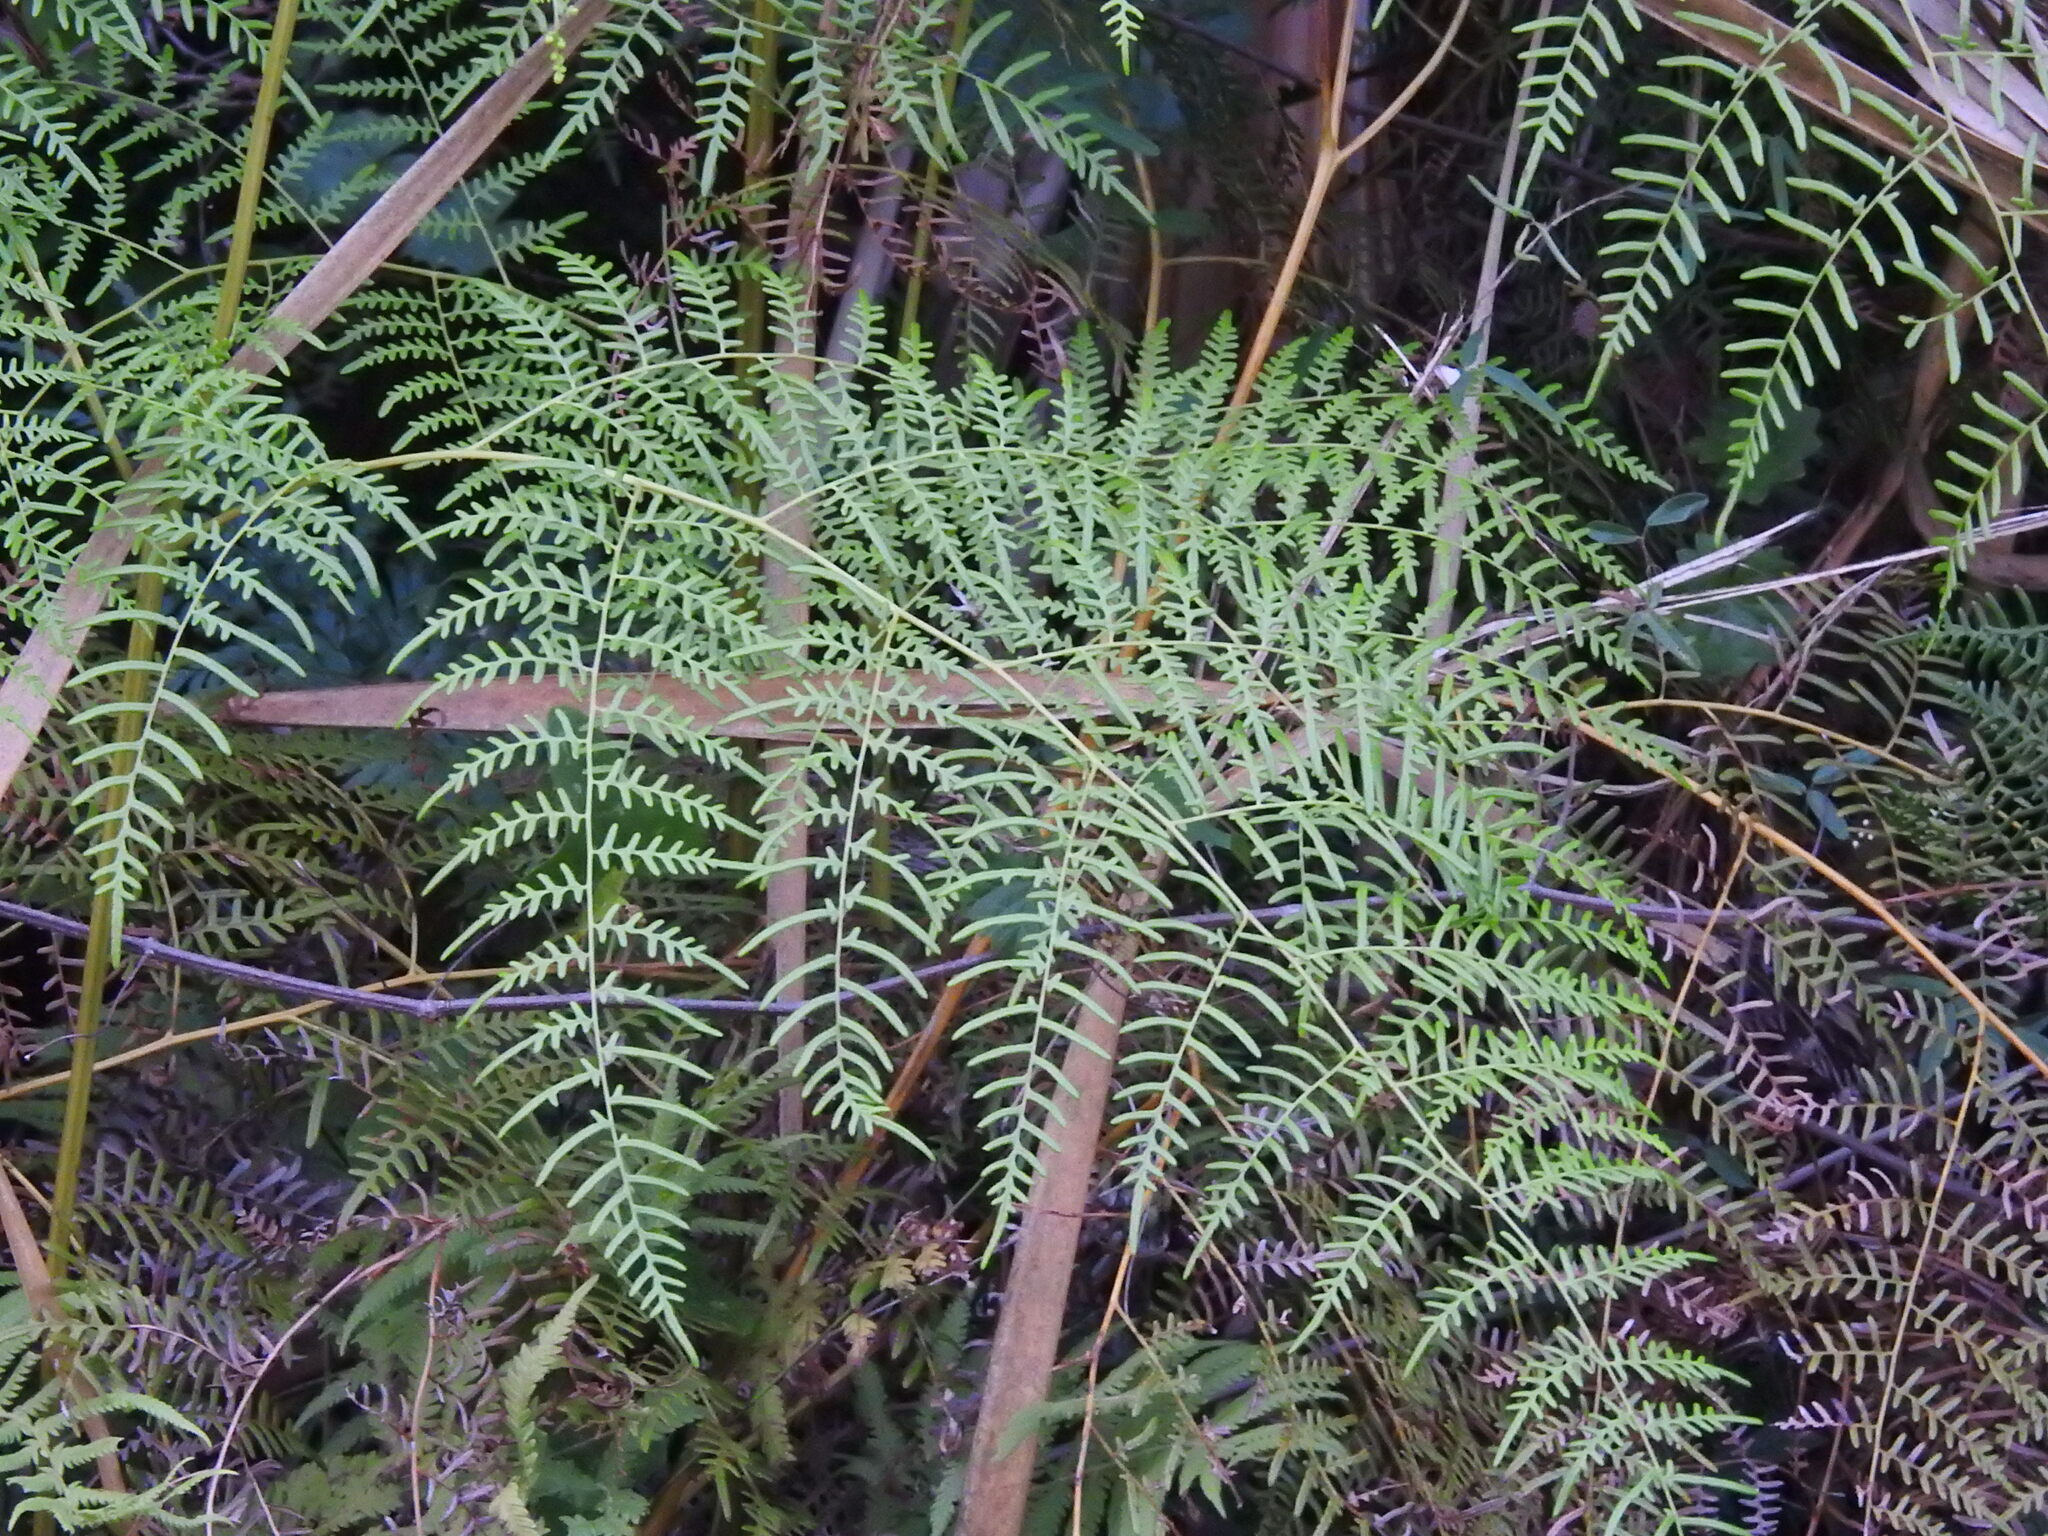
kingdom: Plantae
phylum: Tracheophyta
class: Polypodiopsida
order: Polypodiales
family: Dennstaedtiaceae
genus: Pteridium
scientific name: Pteridium caudatum
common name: Southern bracken fern
